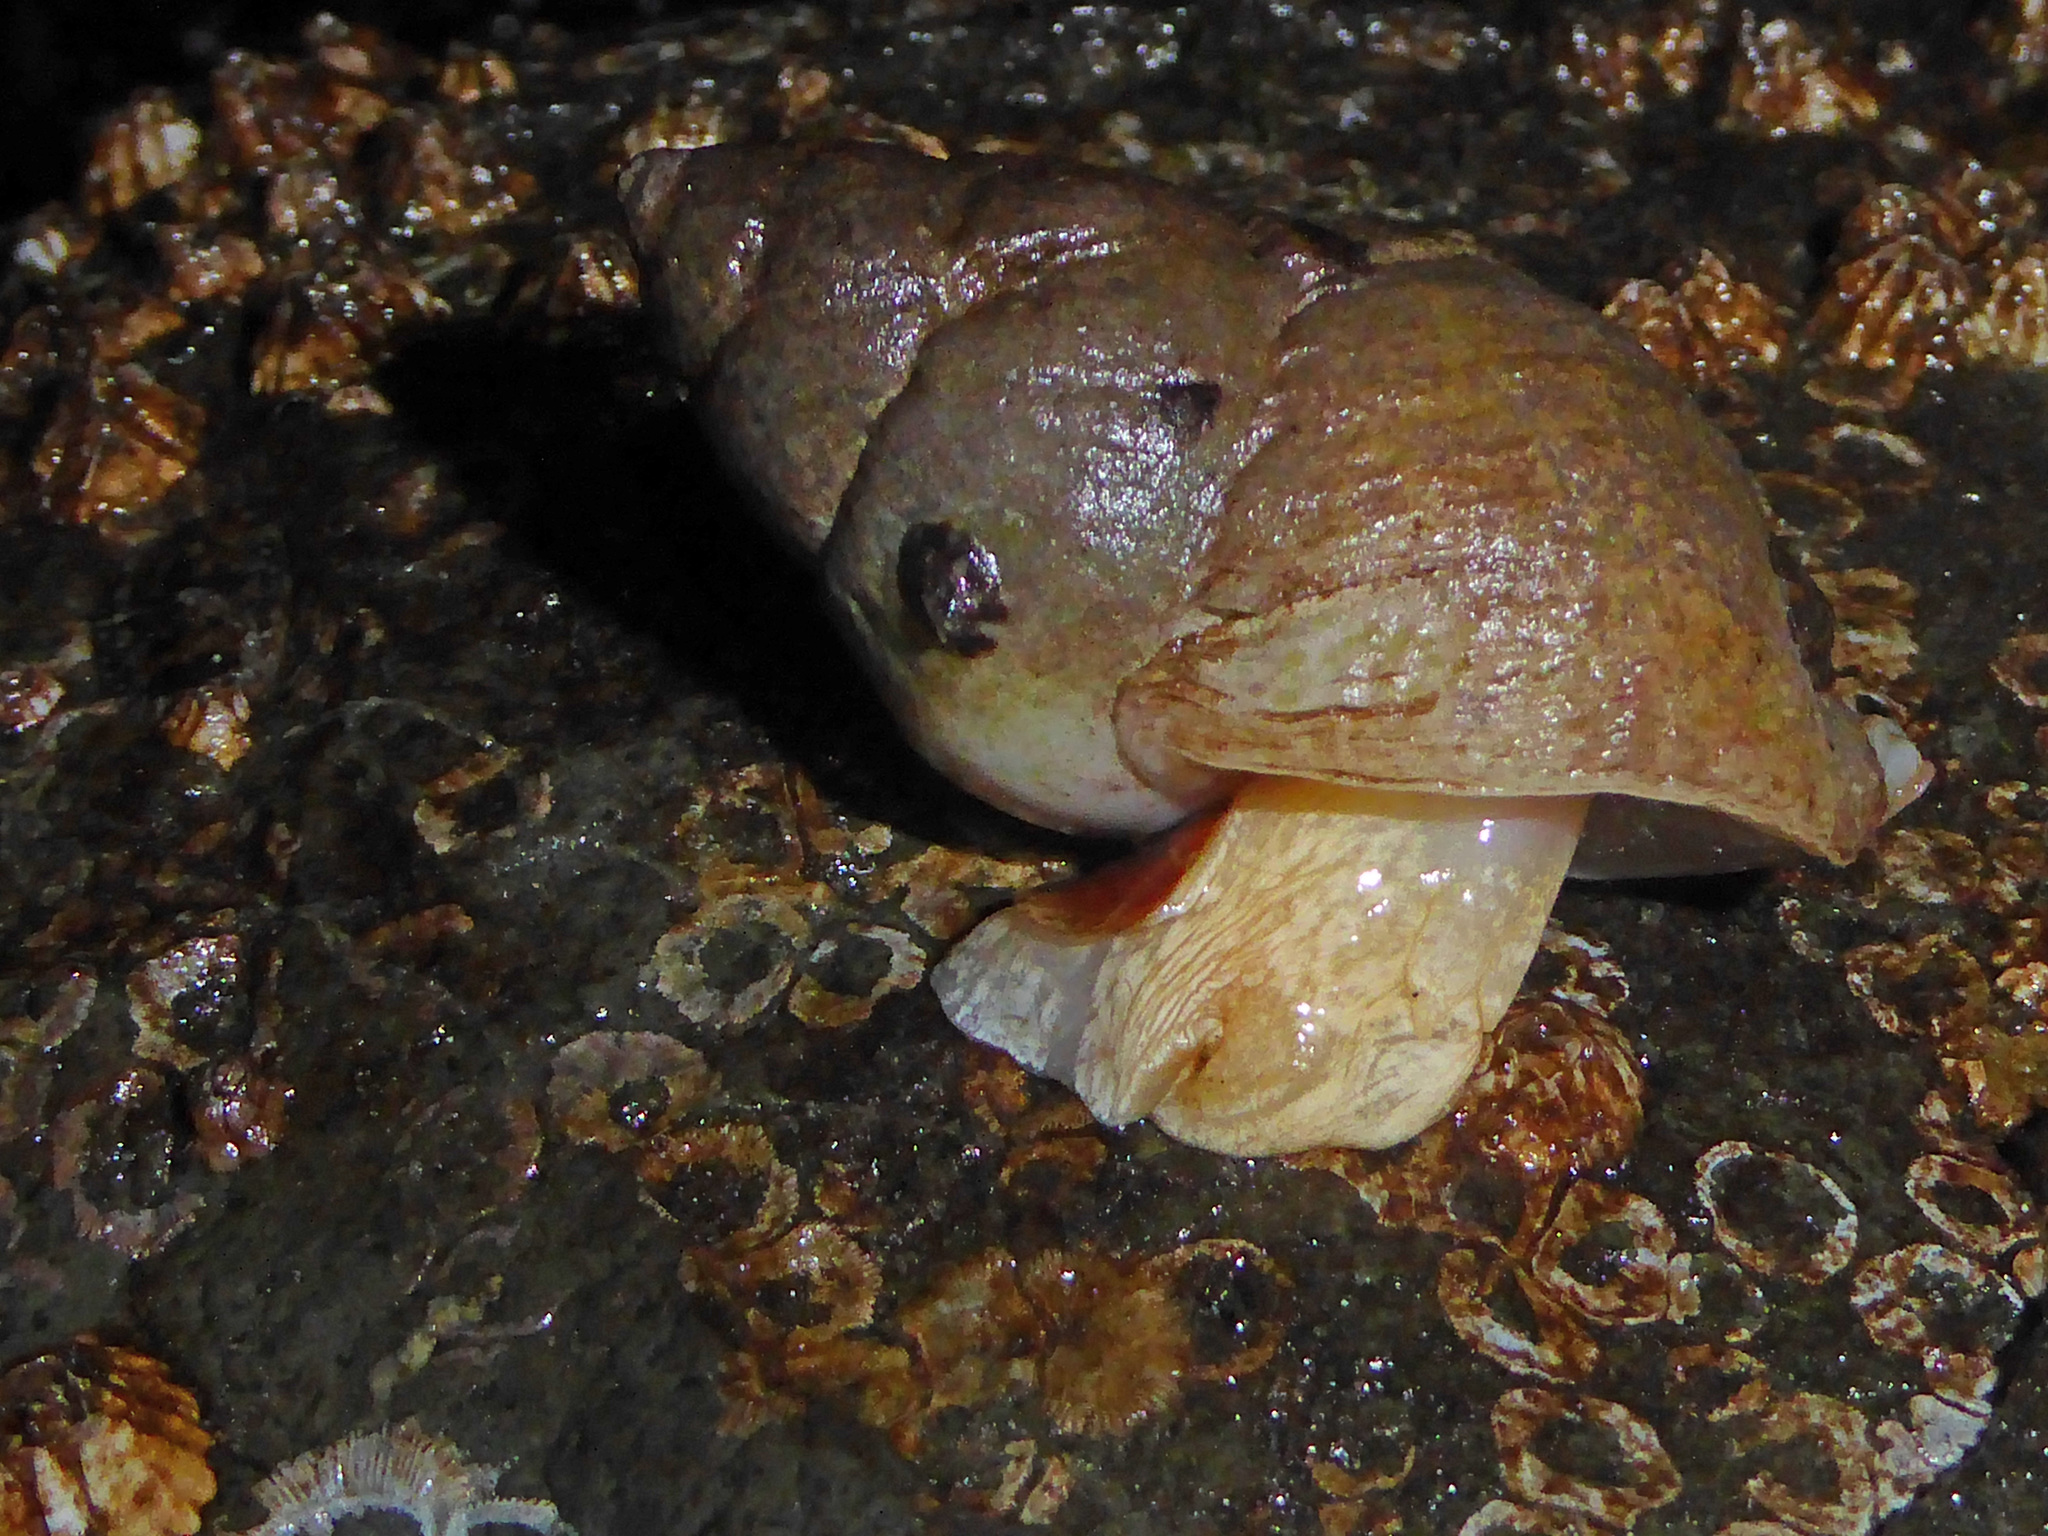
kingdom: Animalia
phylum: Mollusca
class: Gastropoda
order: Neogastropoda
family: Muricidae
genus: Nucella
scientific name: Nucella lamellosa
